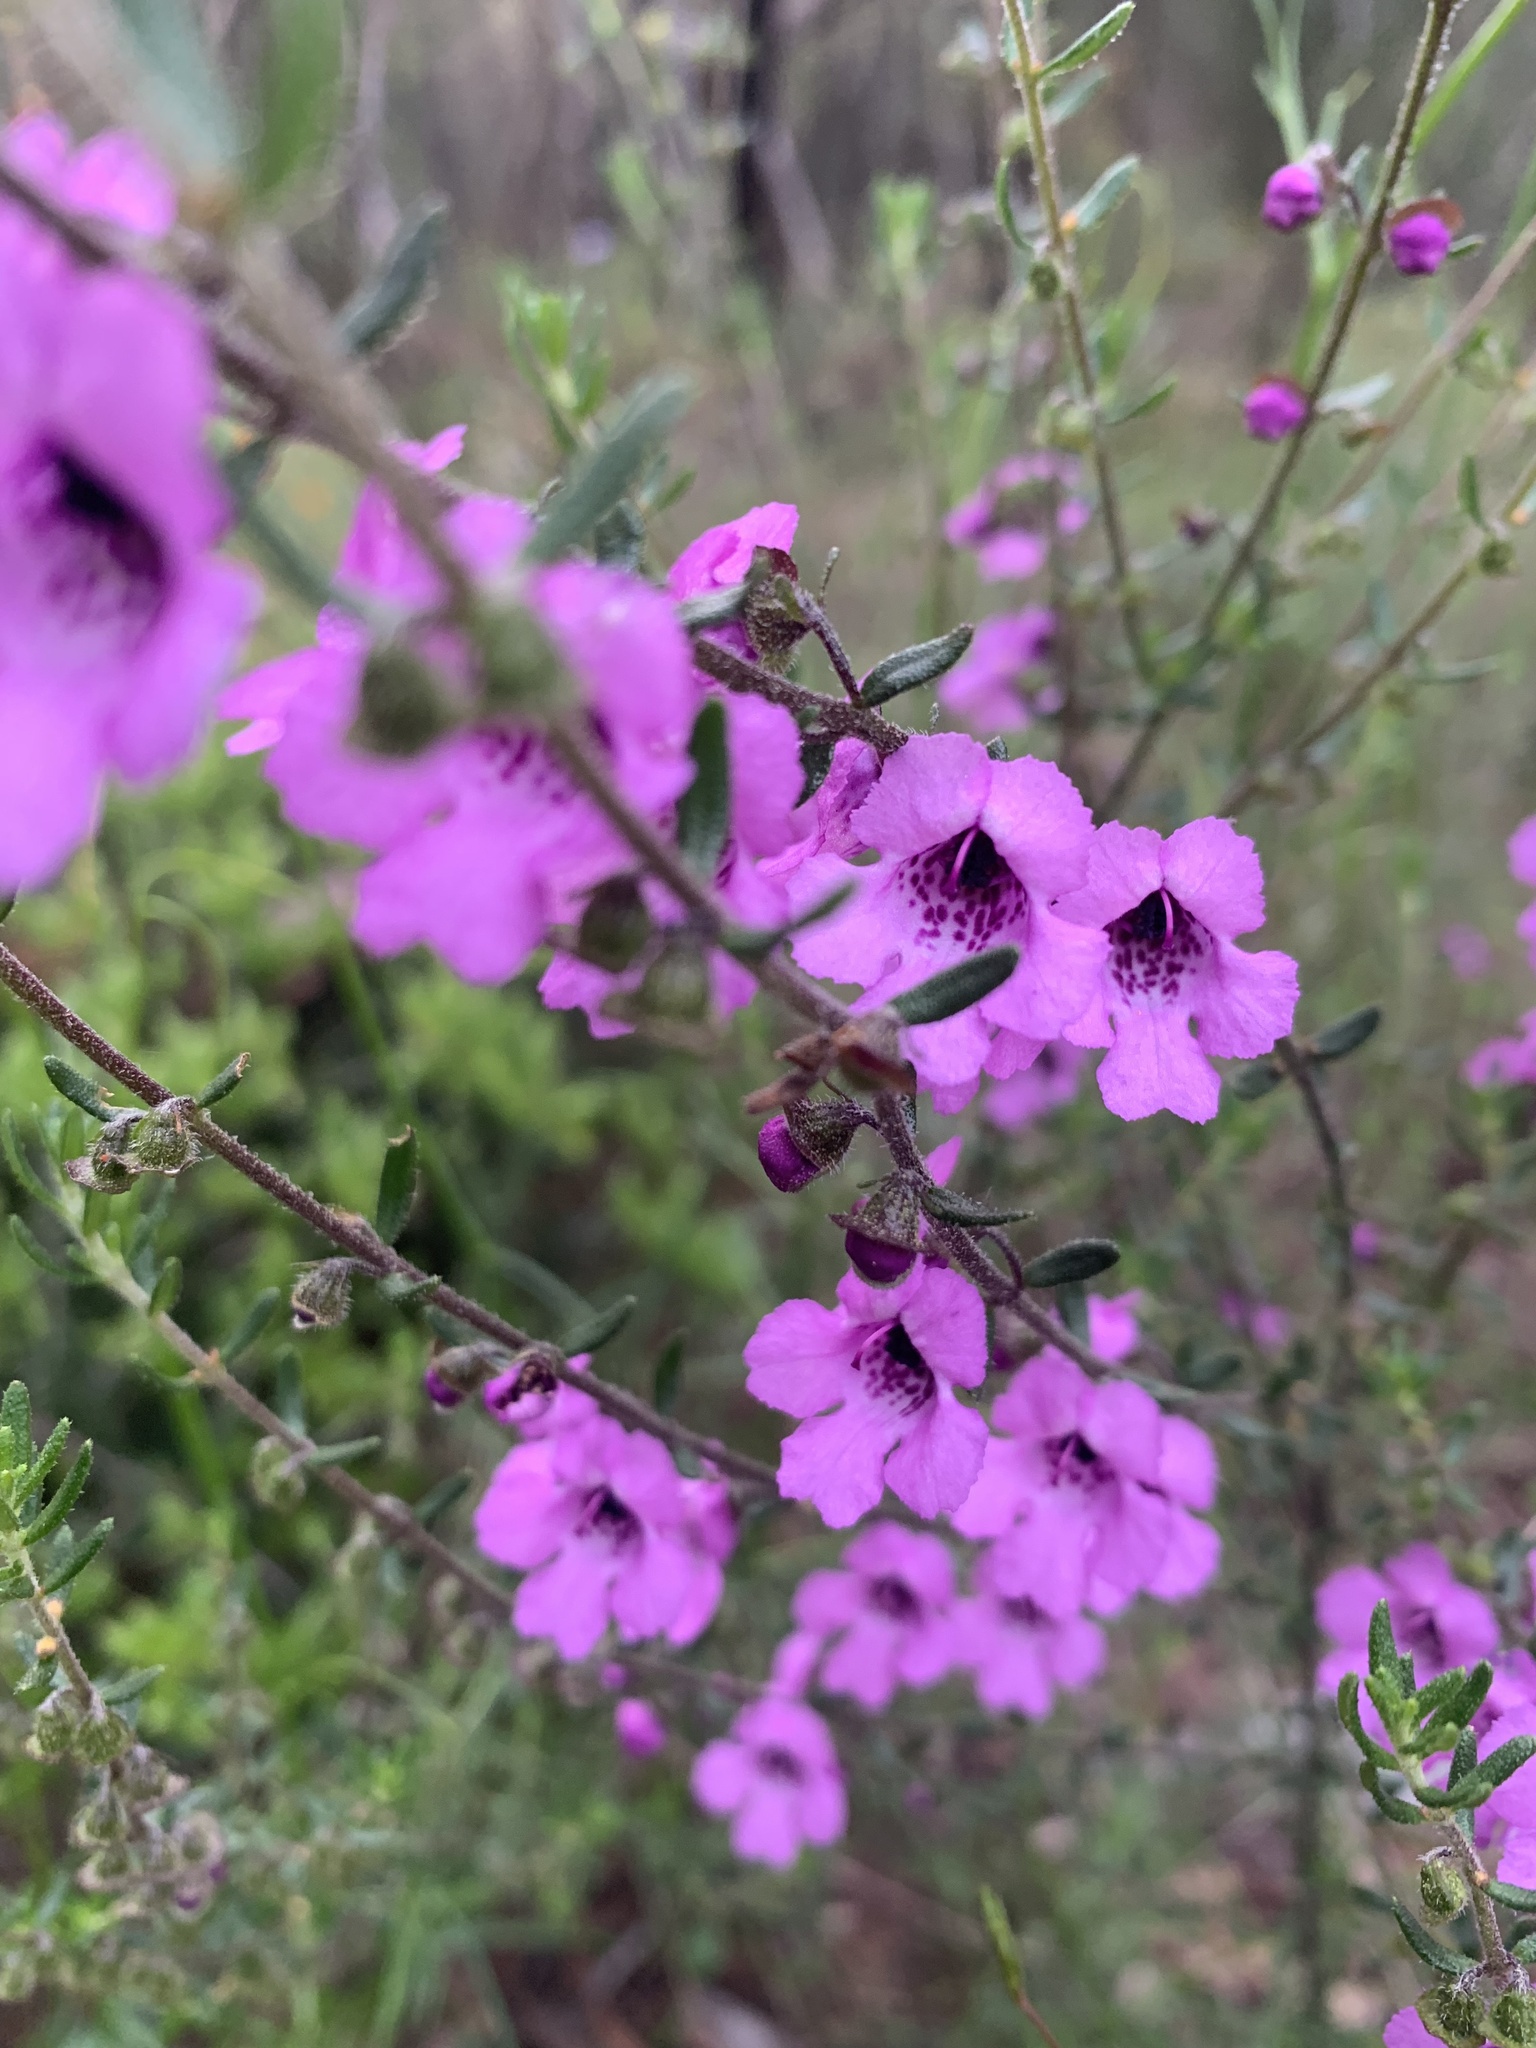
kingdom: Plantae
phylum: Tracheophyta
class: Magnoliopsida
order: Lamiales
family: Lamiaceae
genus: Prostanthera
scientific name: Prostanthera howelliae
